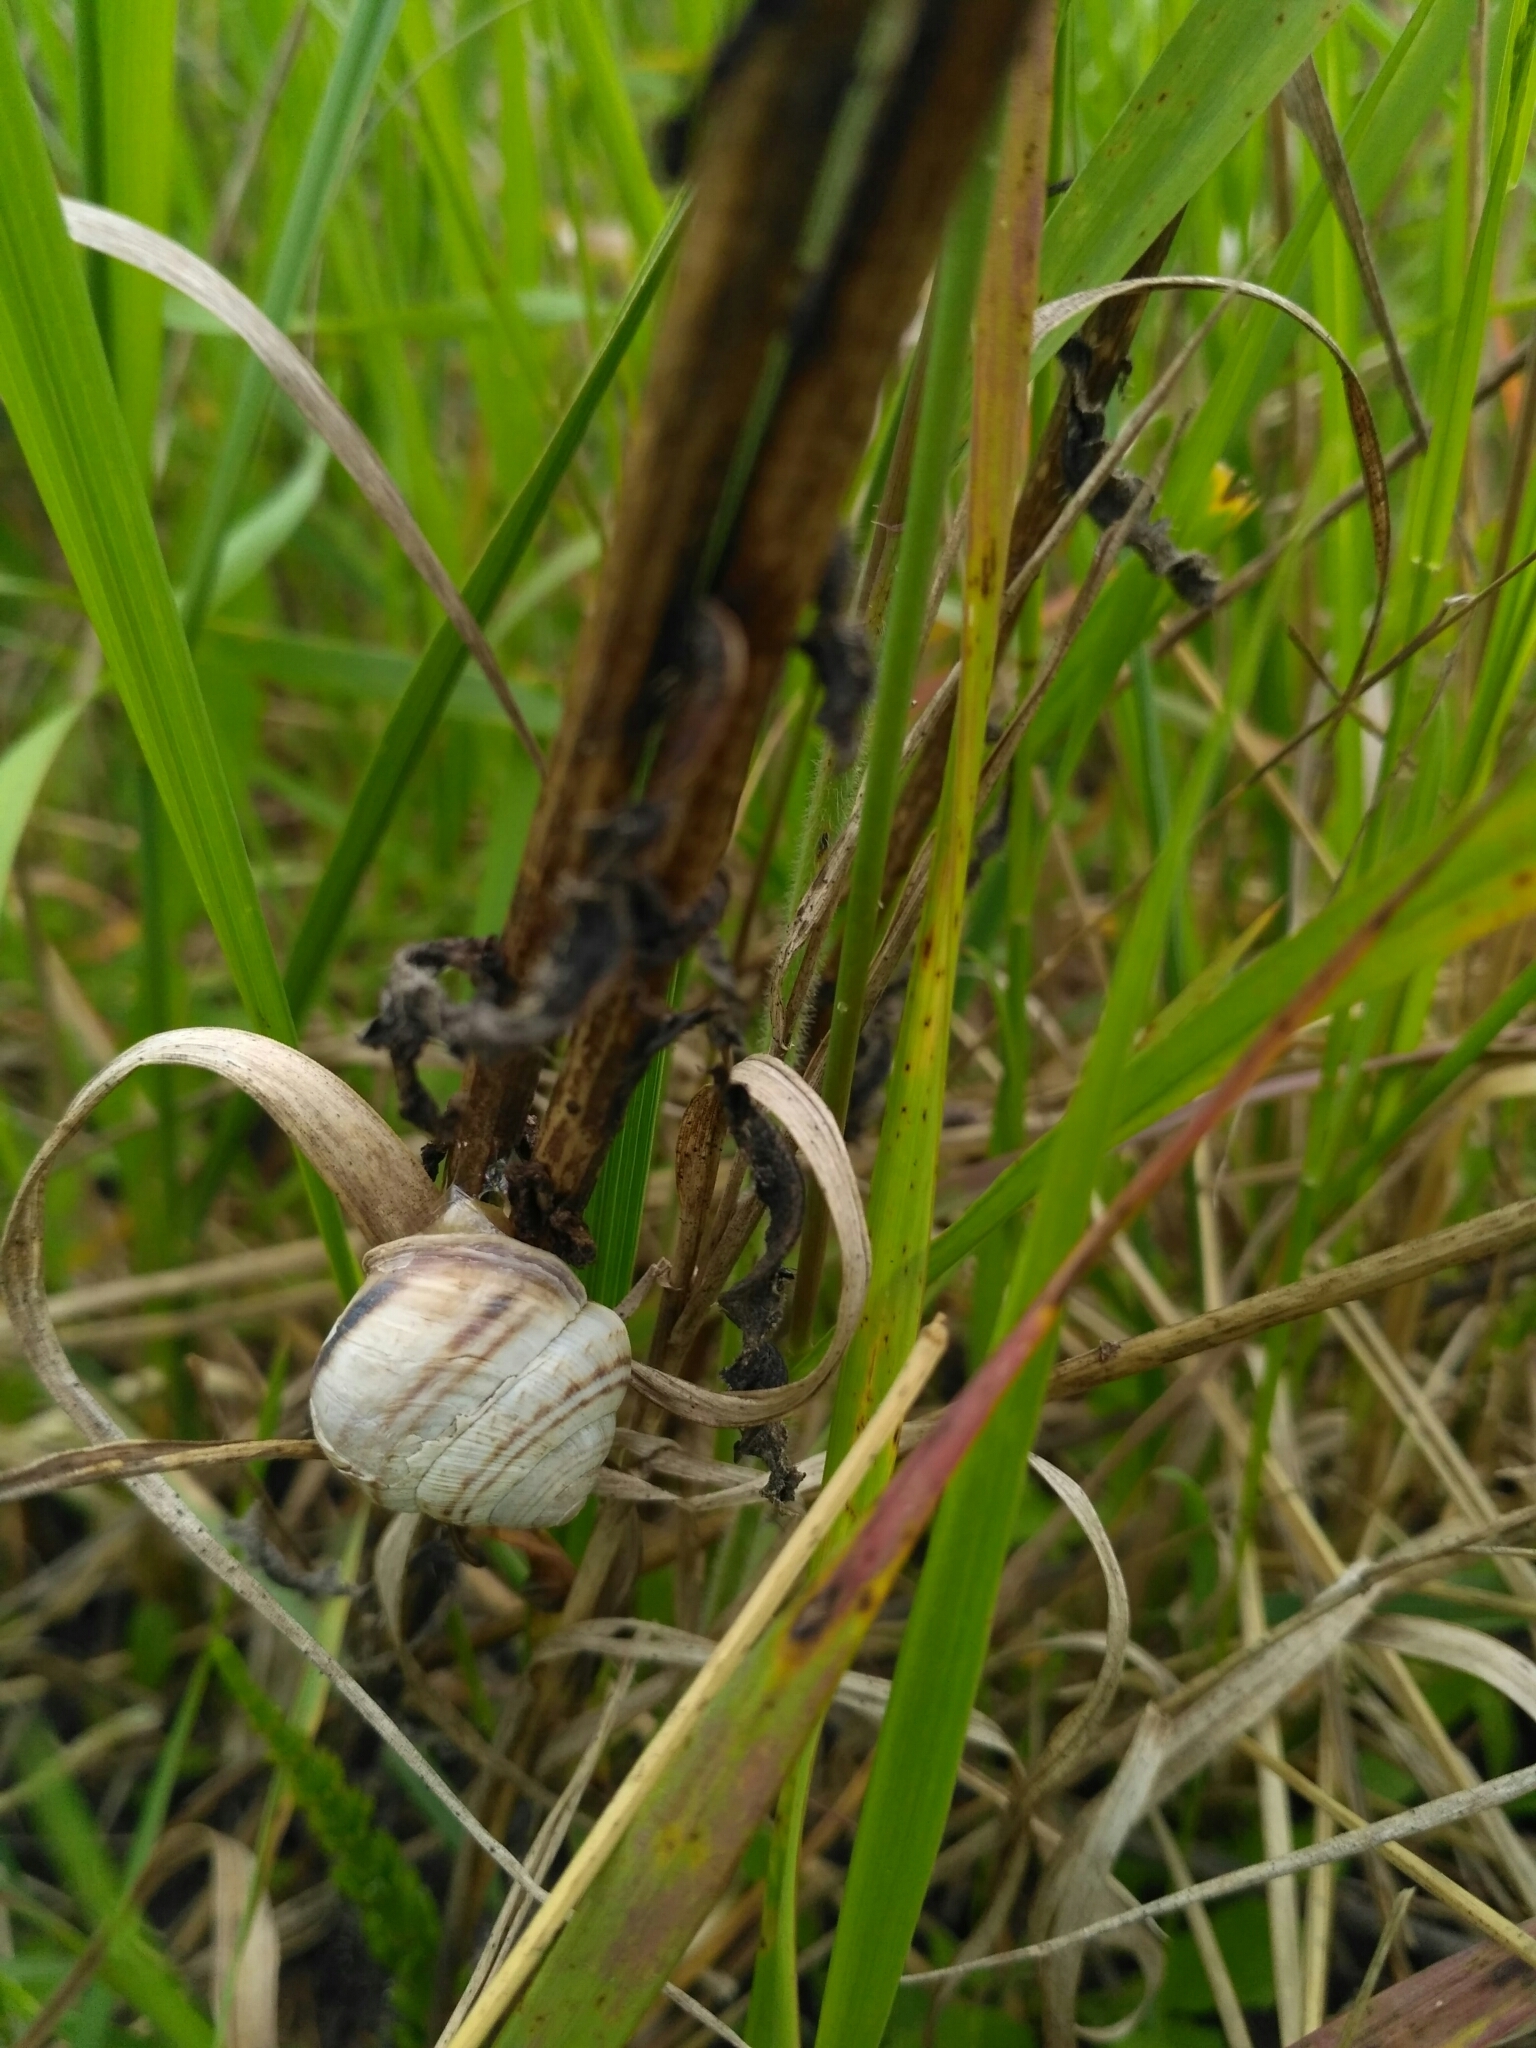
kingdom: Animalia
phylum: Mollusca
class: Gastropoda
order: Stylommatophora
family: Helicidae
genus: Caucasotachea
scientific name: Caucasotachea vindobonensis
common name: European helicid land snail
